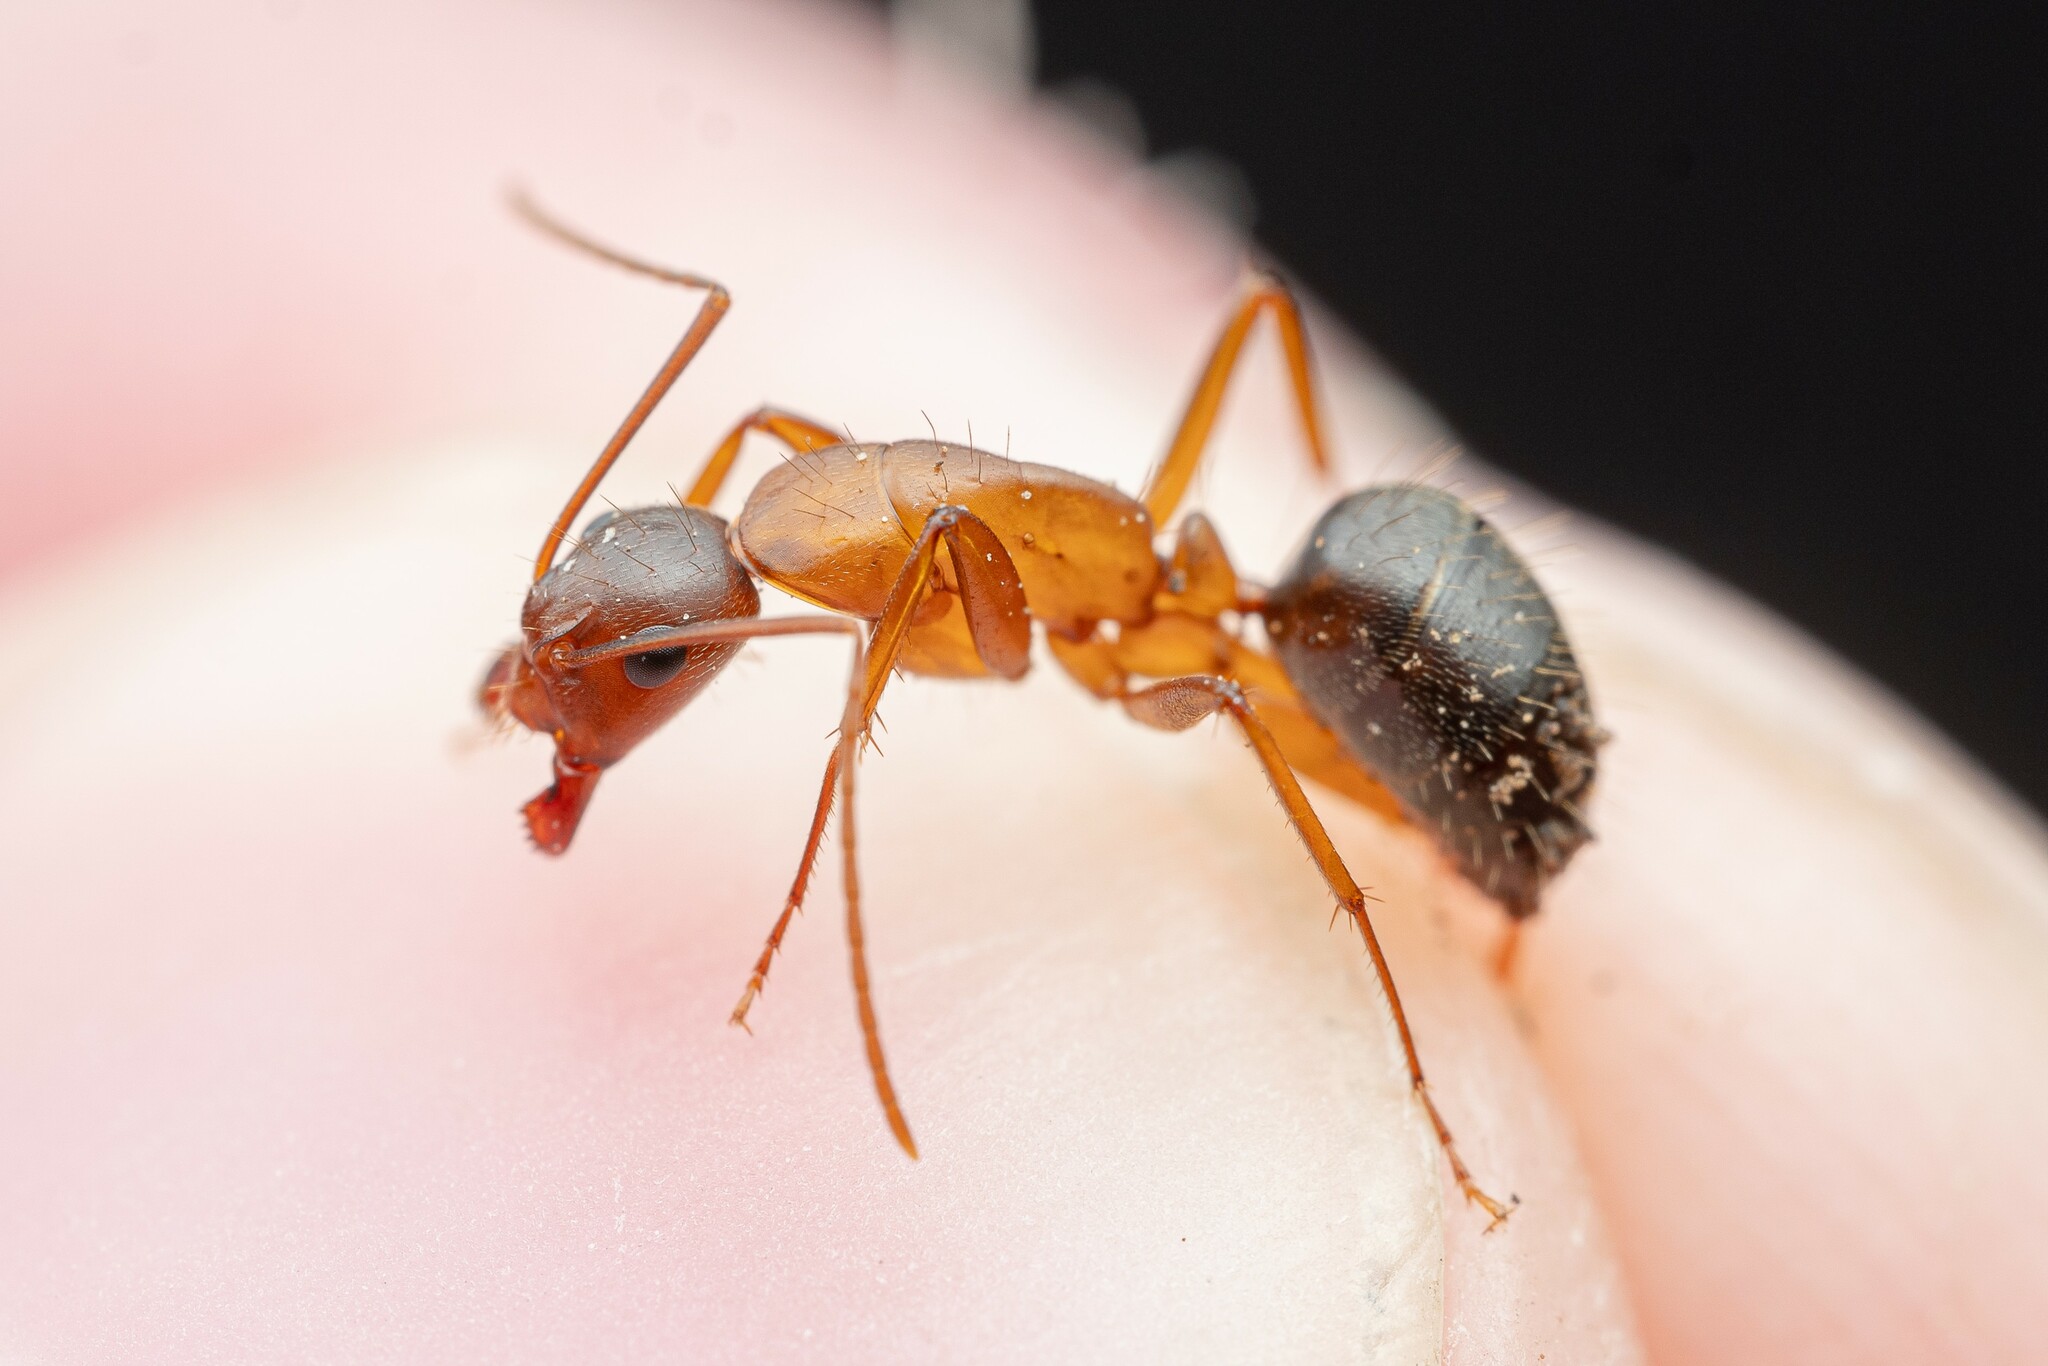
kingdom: Animalia
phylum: Arthropoda
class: Insecta
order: Hymenoptera
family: Formicidae
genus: Camponotus
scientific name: Camponotus semitestaceus
